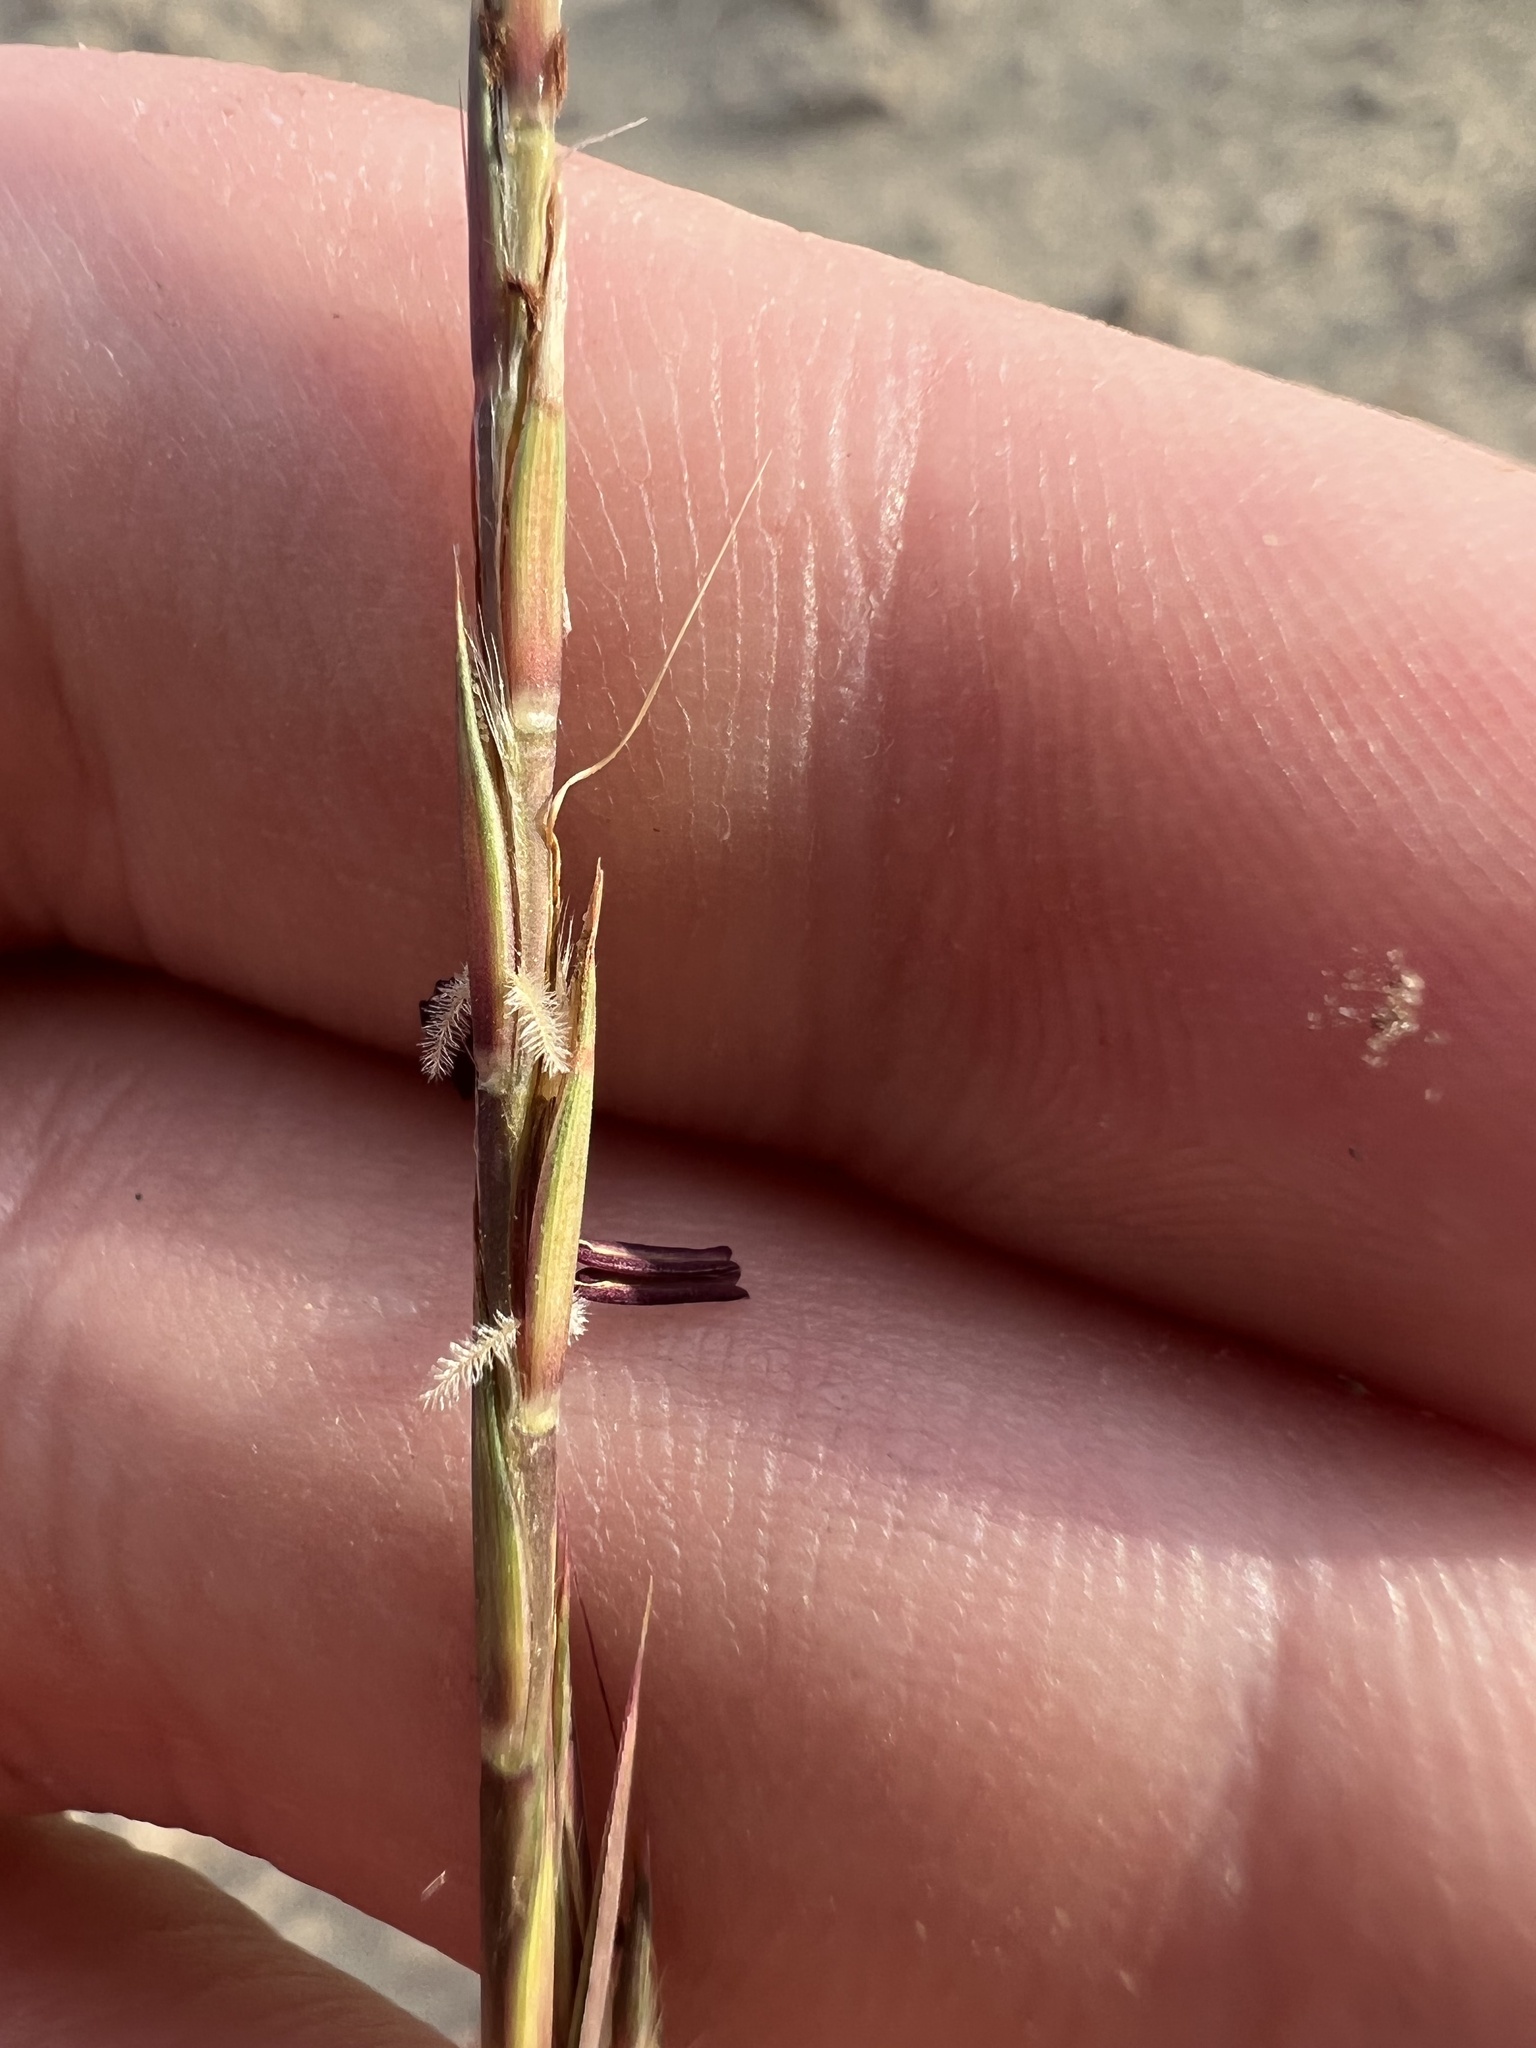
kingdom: Plantae
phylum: Tracheophyta
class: Liliopsida
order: Poales
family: Poaceae
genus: Schizachyrium
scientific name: Schizachyrium scoparium
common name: Little bluestem
